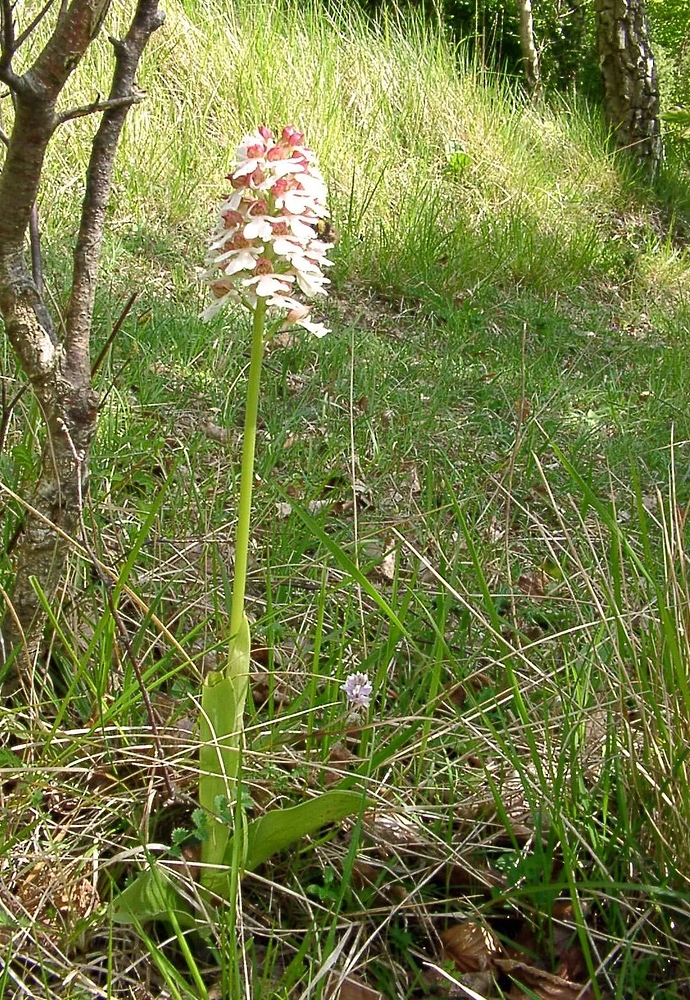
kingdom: Plantae
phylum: Tracheophyta
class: Liliopsida
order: Asparagales
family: Orchidaceae
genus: Orchis
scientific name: Orchis purpurea
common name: Lady orchid
